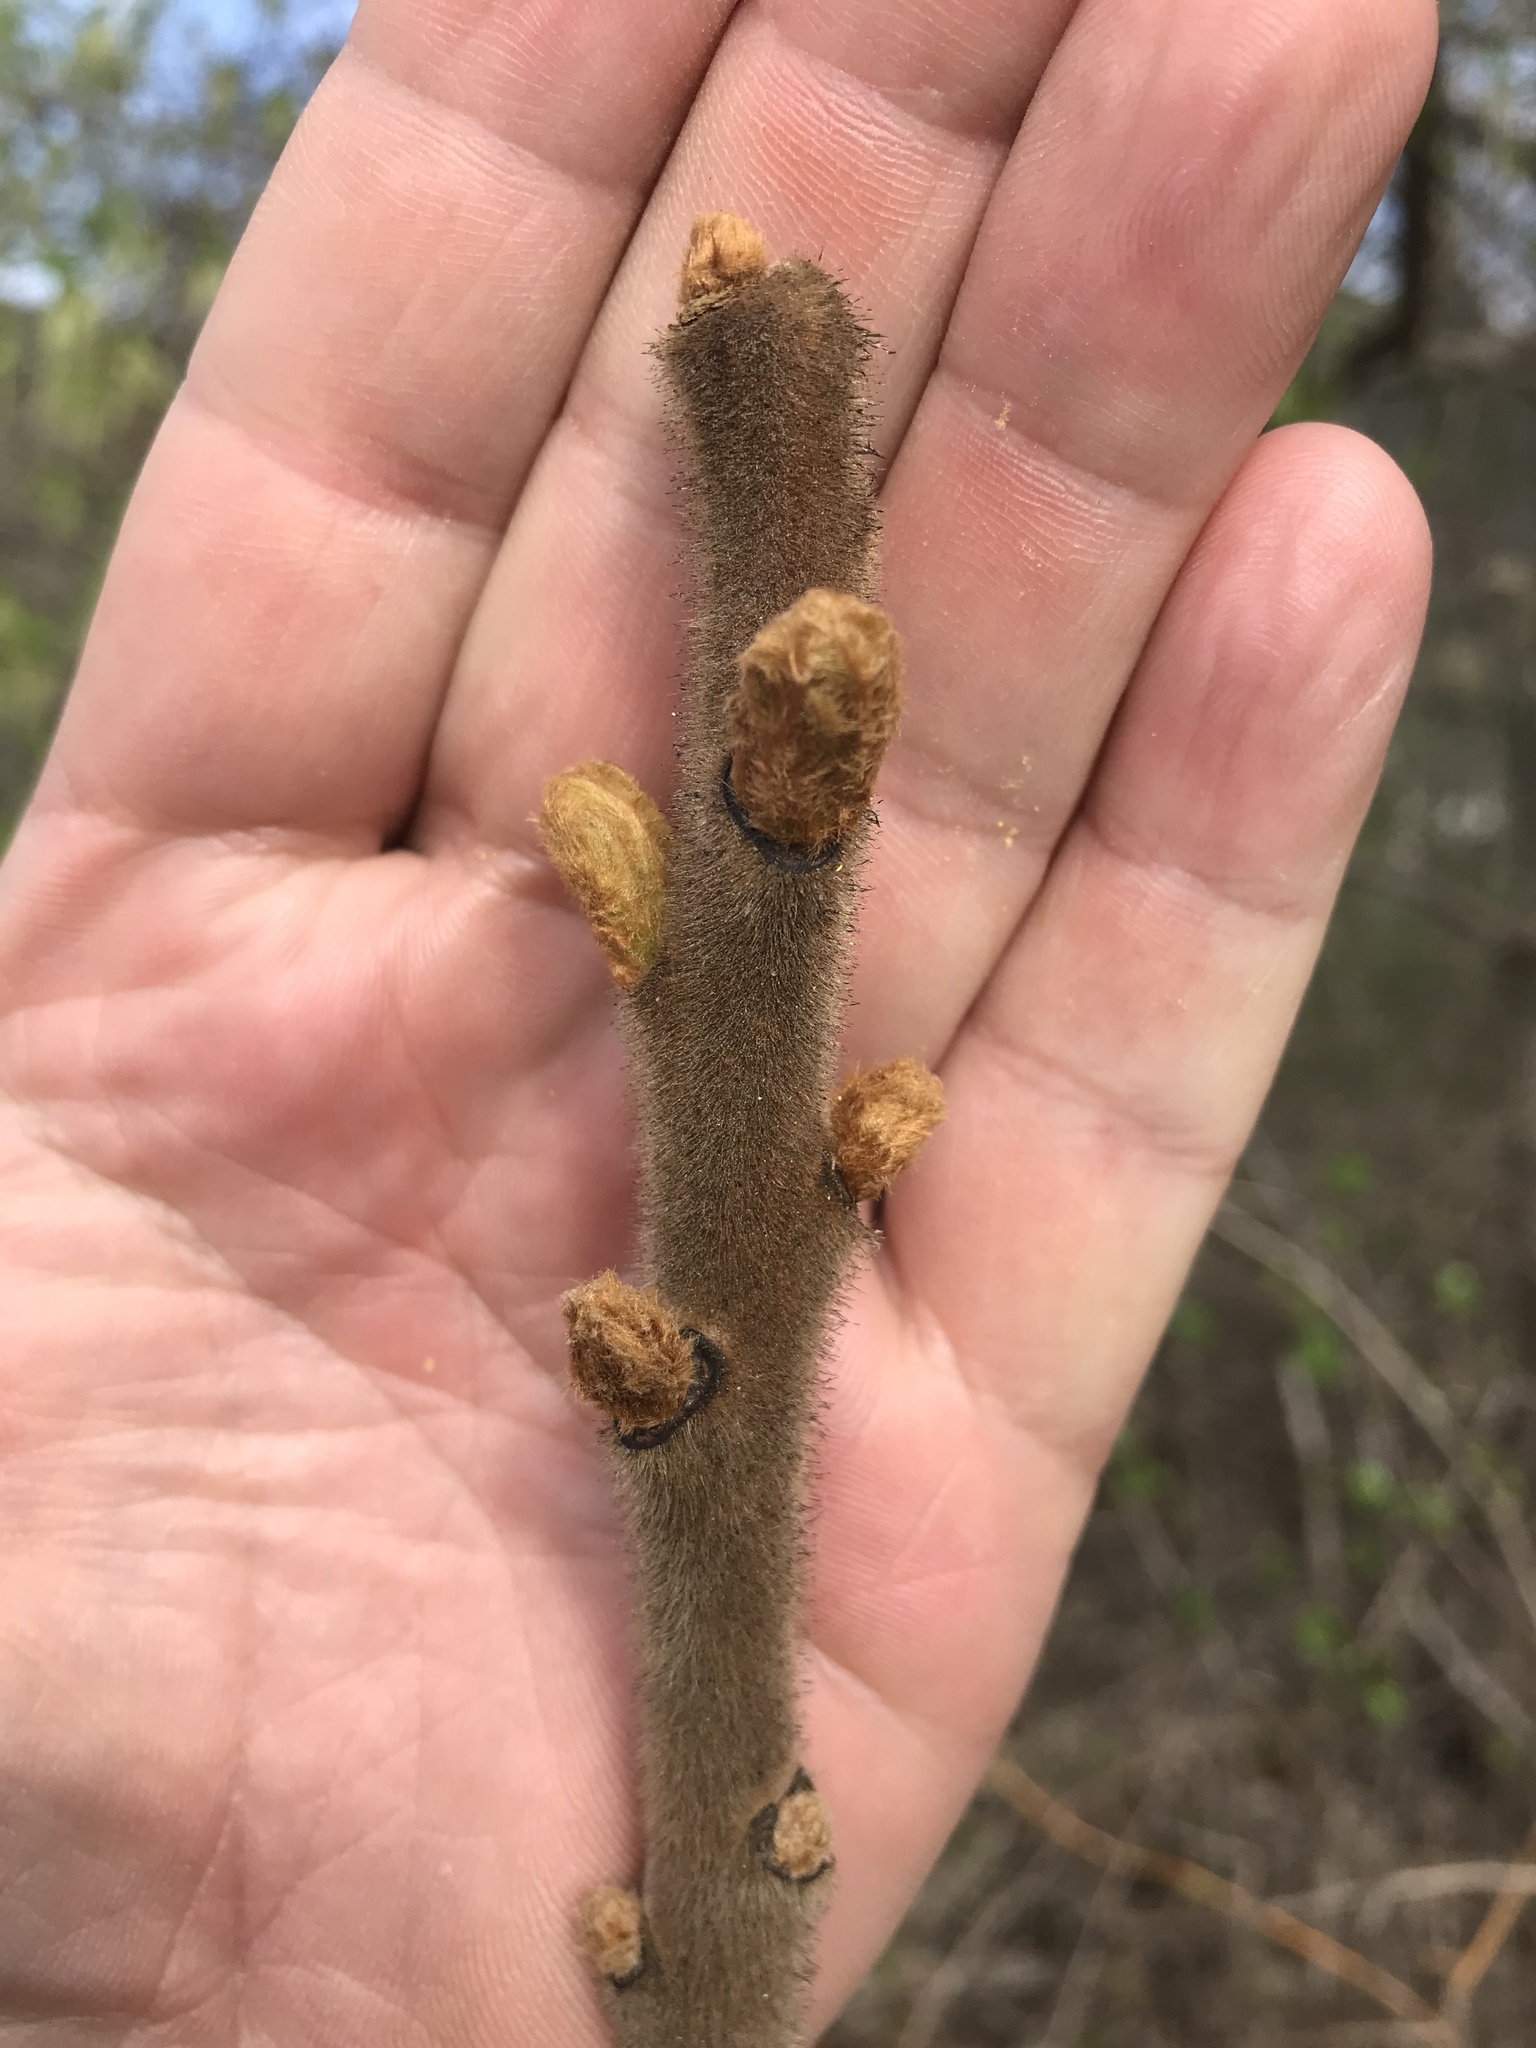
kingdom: Plantae
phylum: Tracheophyta
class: Magnoliopsida
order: Sapindales
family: Anacardiaceae
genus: Rhus
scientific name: Rhus typhina
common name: Staghorn sumac
